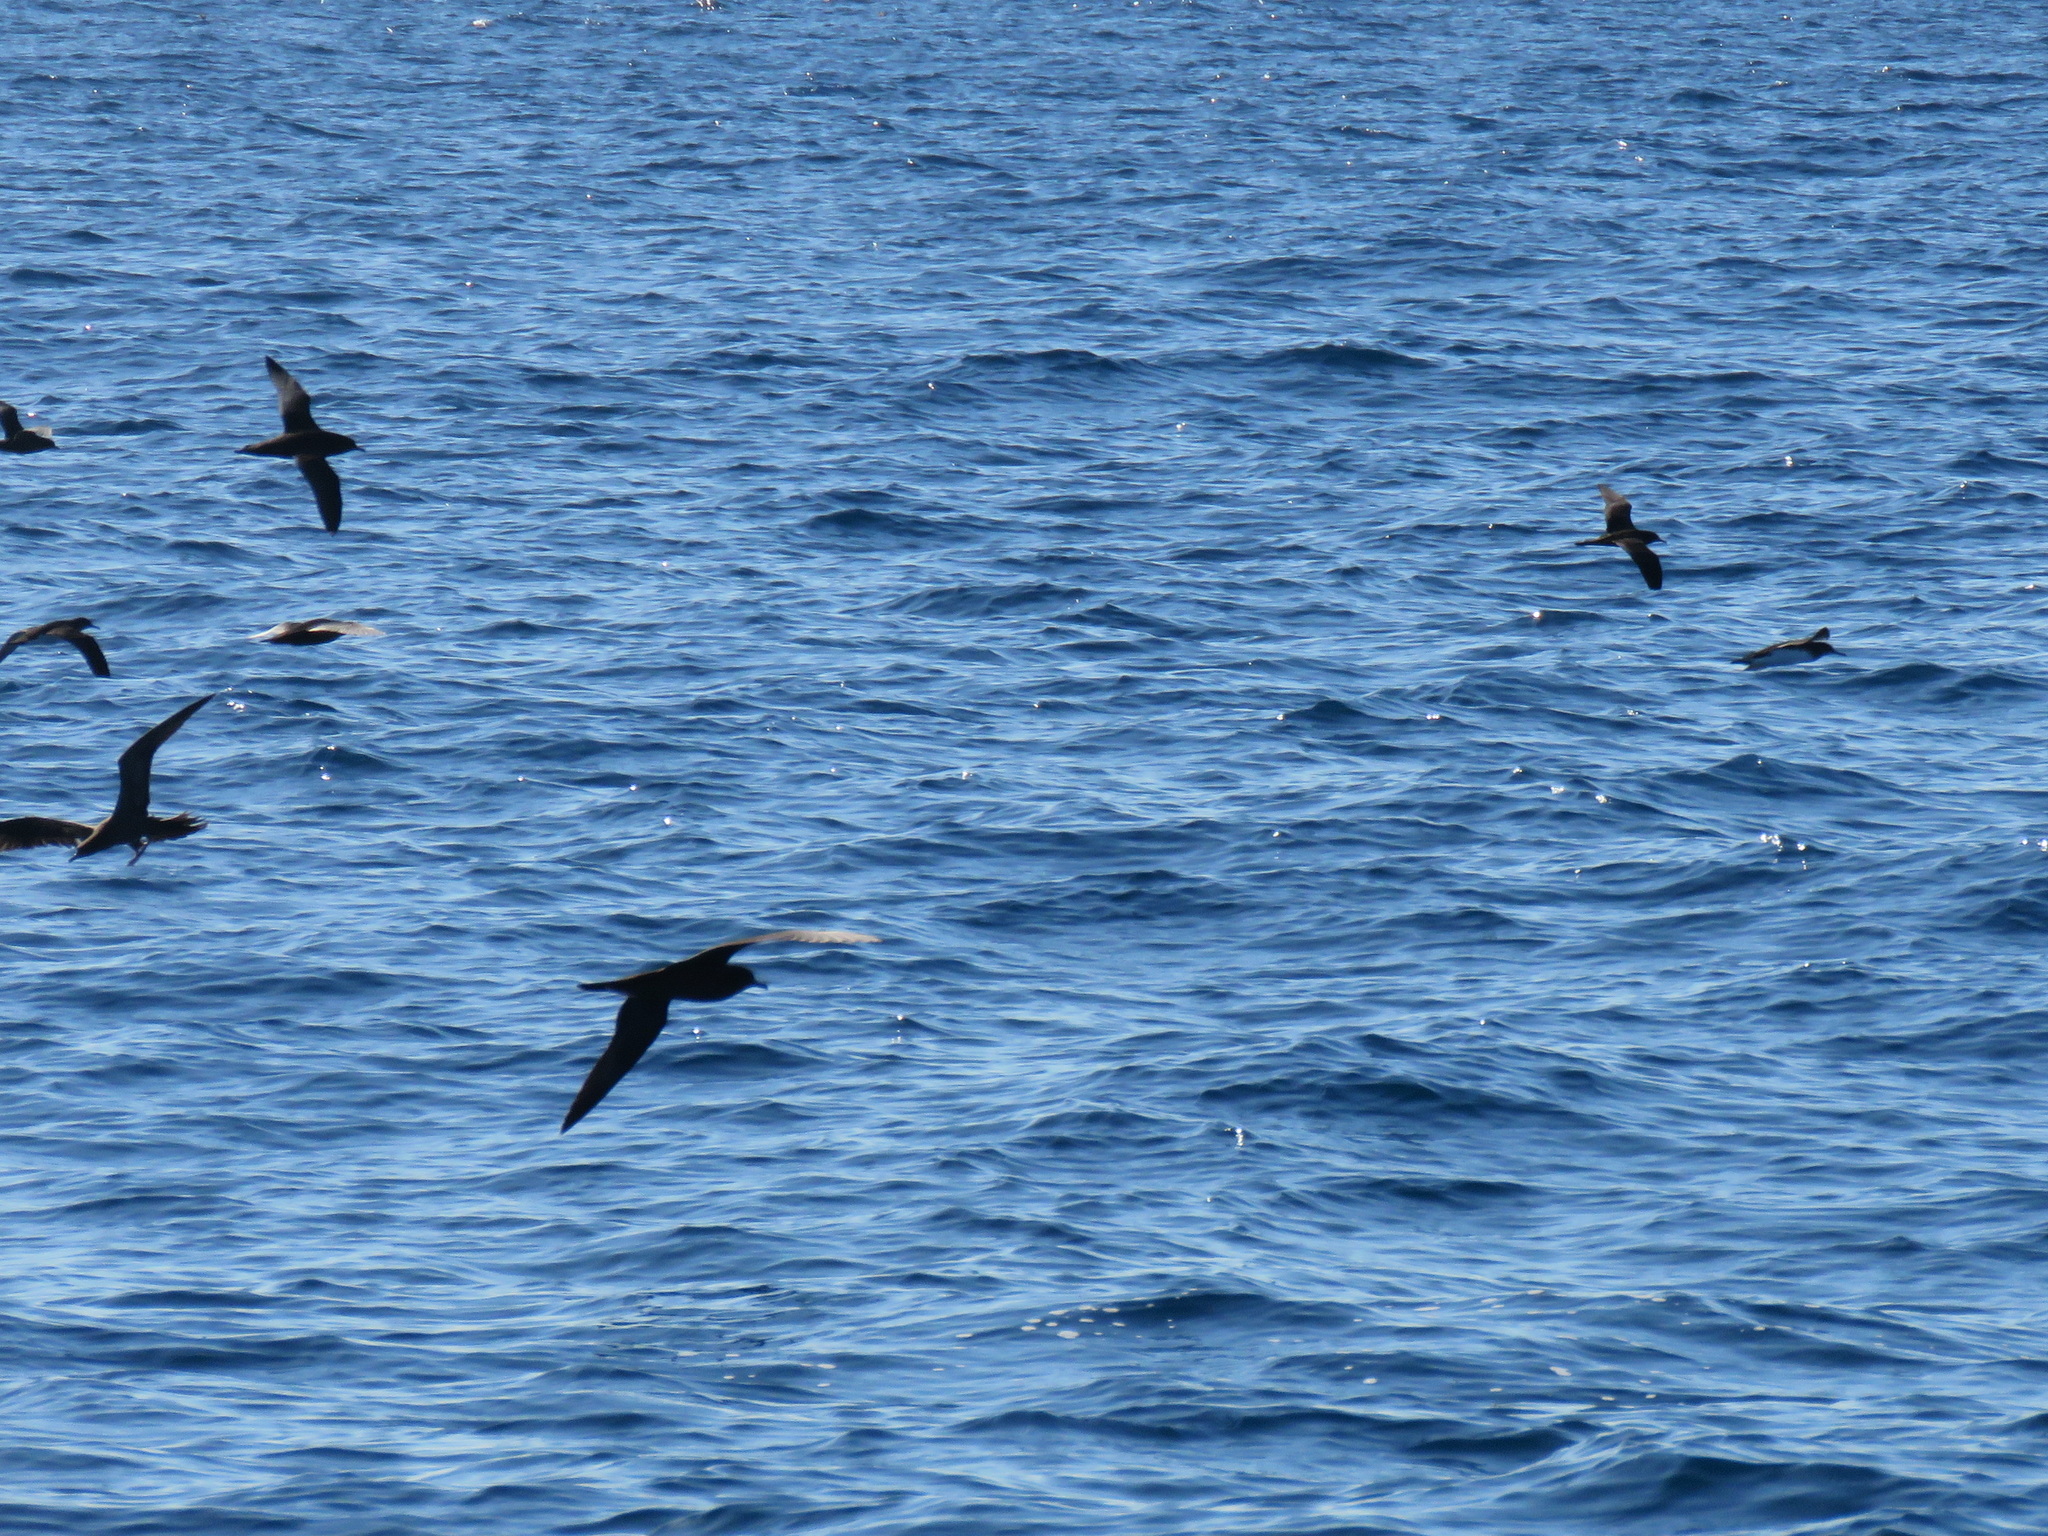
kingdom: Animalia
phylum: Chordata
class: Aves
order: Procellariiformes
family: Procellariidae
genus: Puffinus
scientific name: Puffinus pacificus
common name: Wedge-tailed shearwater
